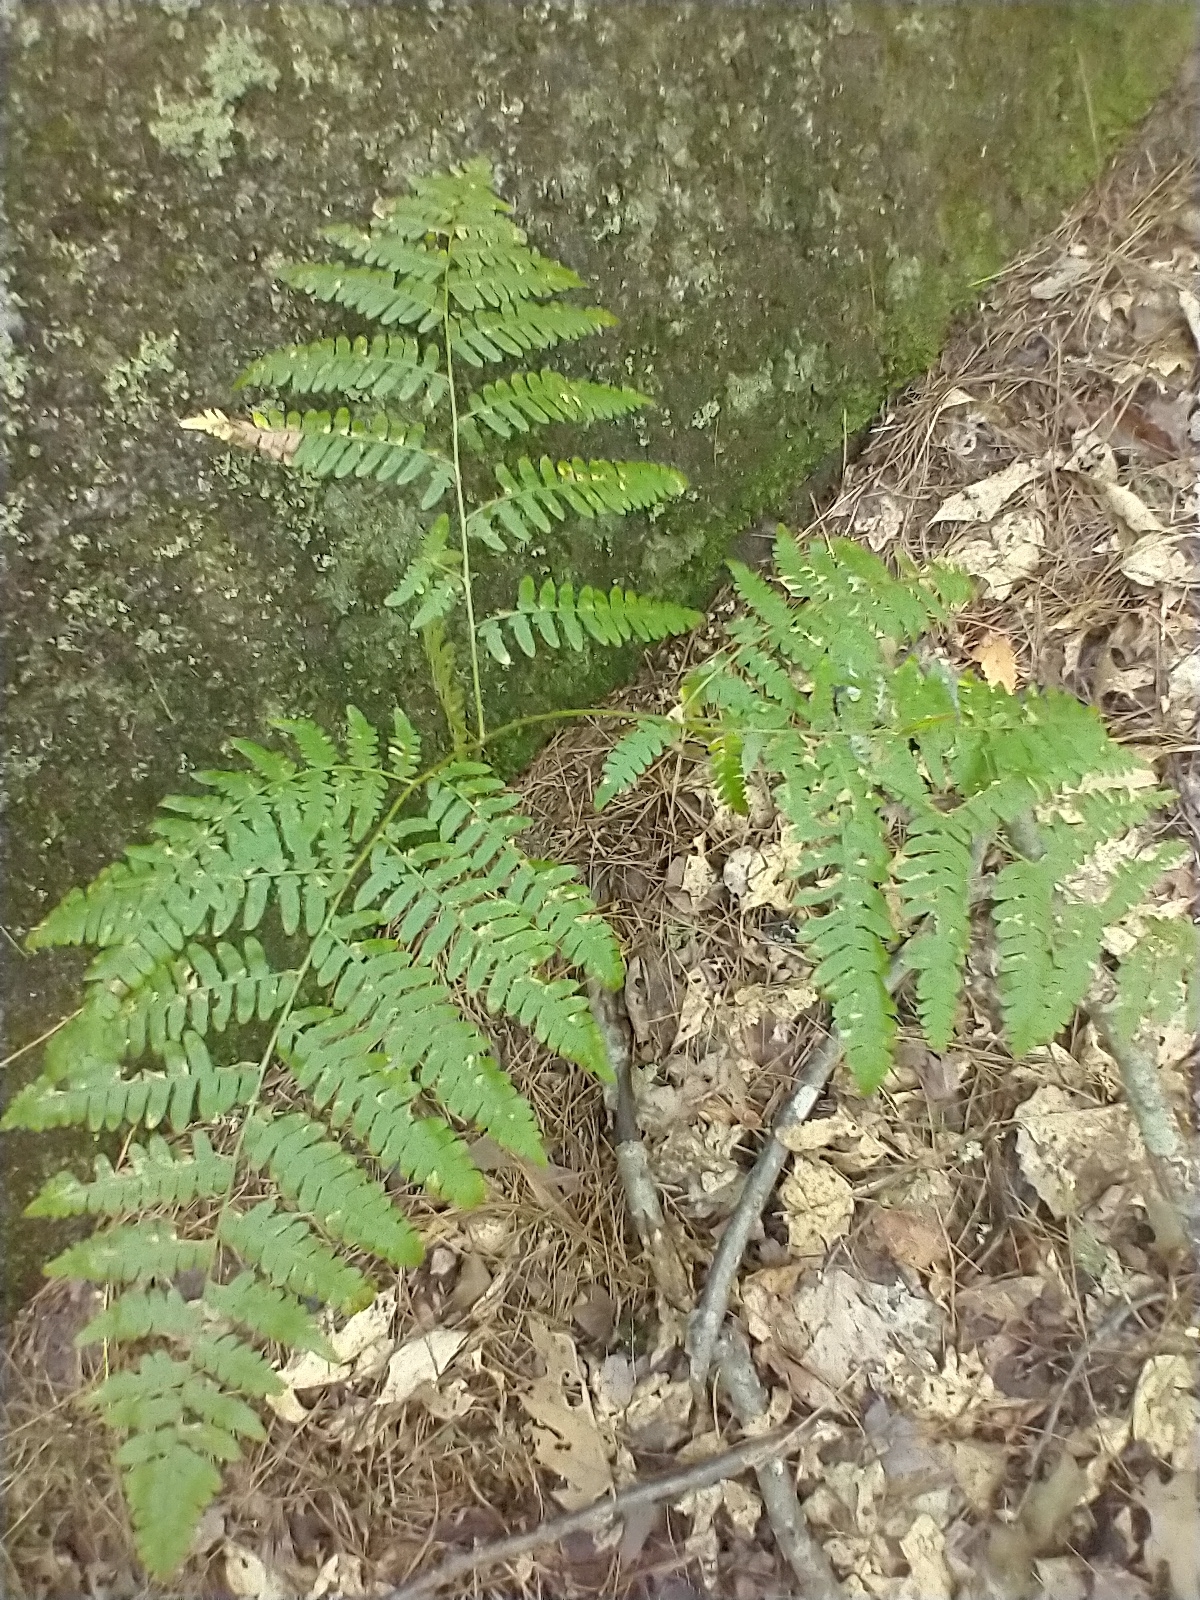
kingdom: Plantae
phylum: Tracheophyta
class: Polypodiopsida
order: Polypodiales
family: Dennstaedtiaceae
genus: Pteridium
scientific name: Pteridium aquilinum
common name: Bracken
